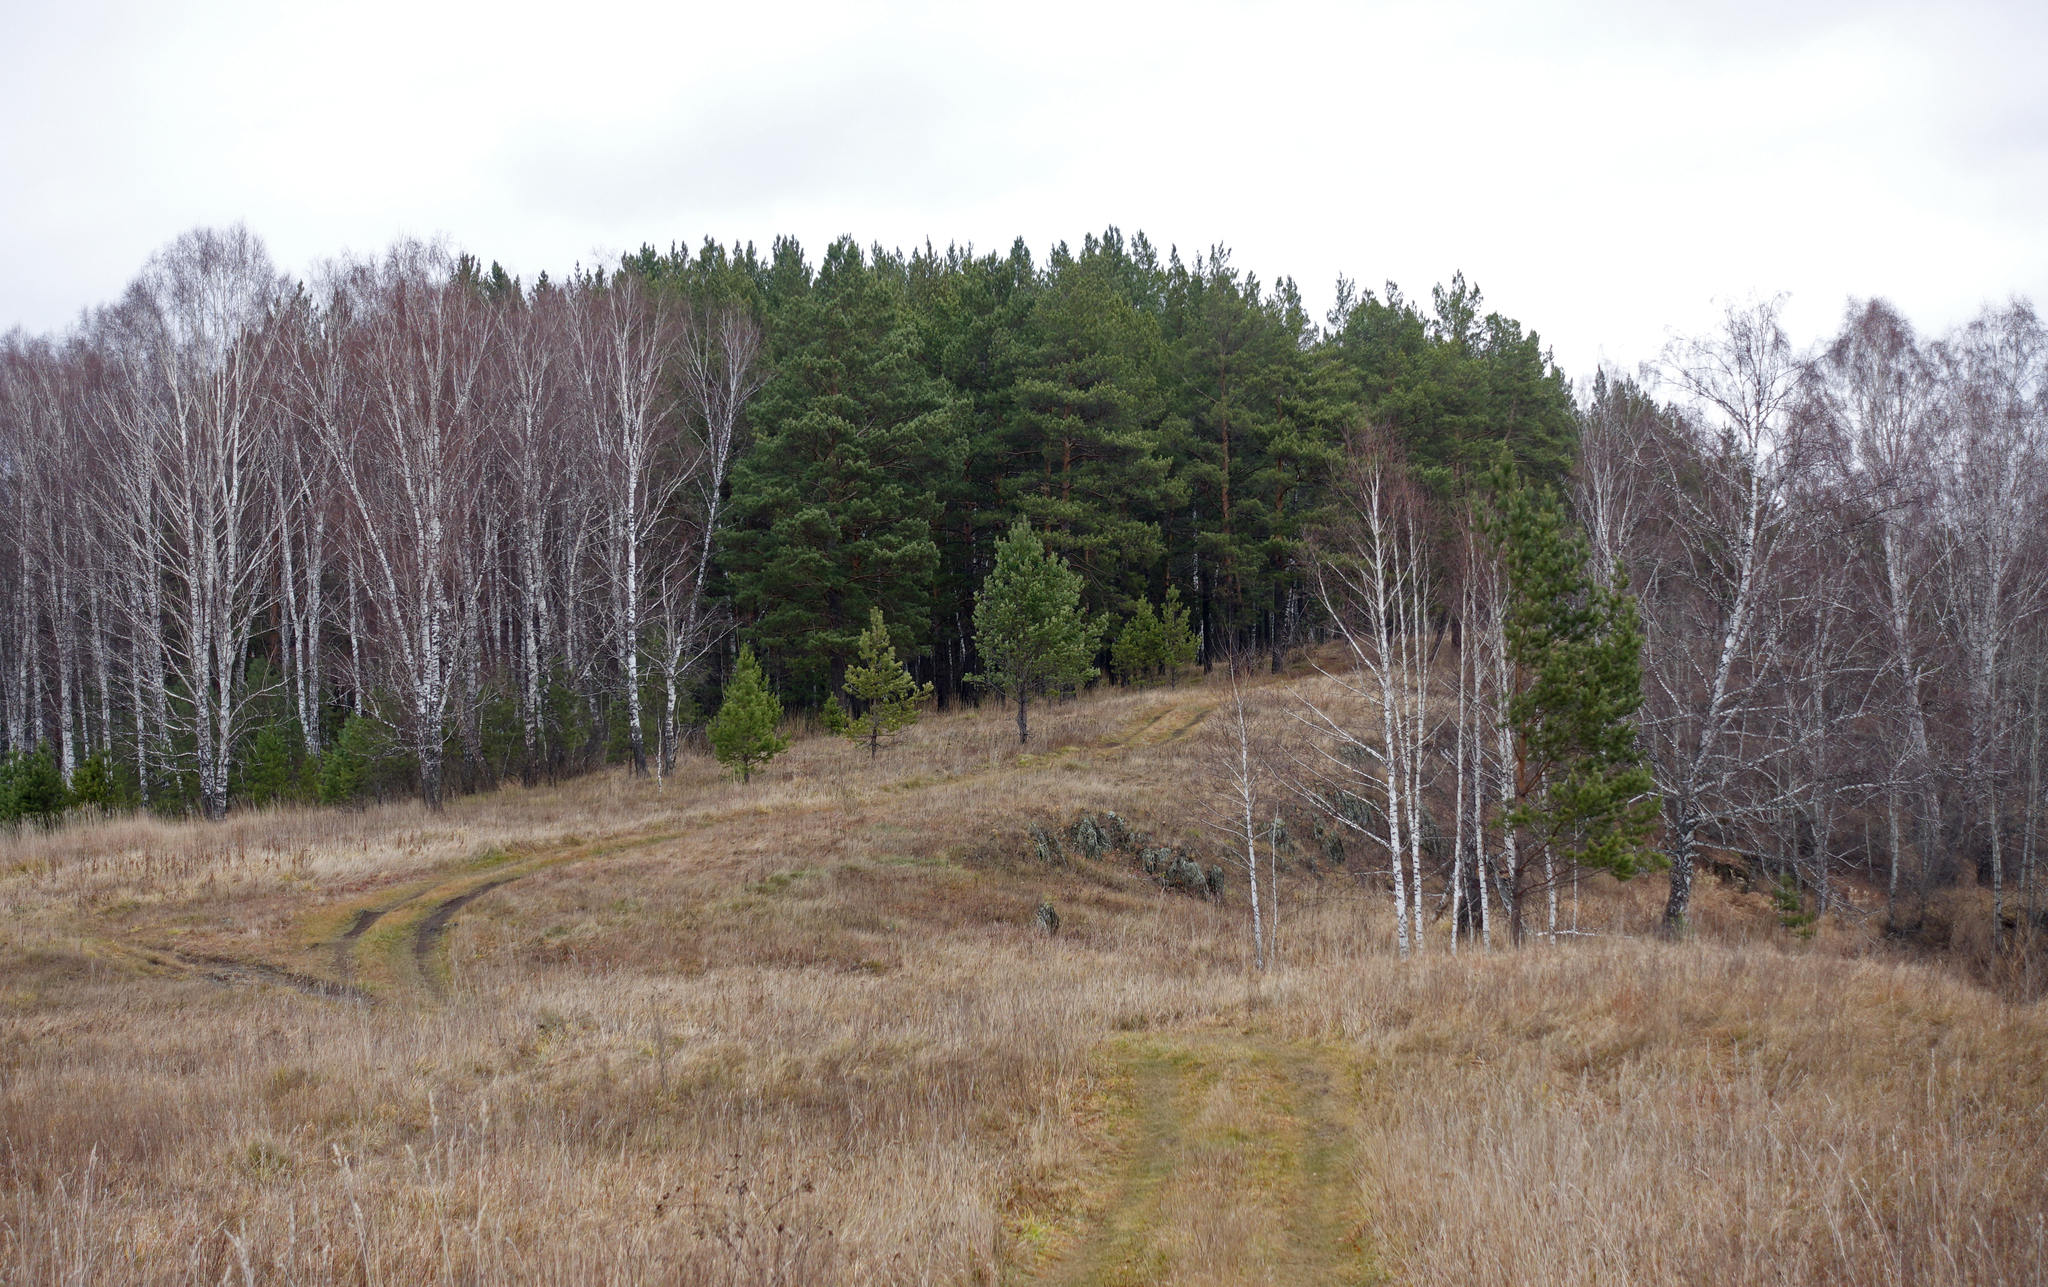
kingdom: Plantae
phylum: Tracheophyta
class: Pinopsida
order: Pinales
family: Pinaceae
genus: Pinus
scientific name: Pinus sylvestris
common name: Scots pine
